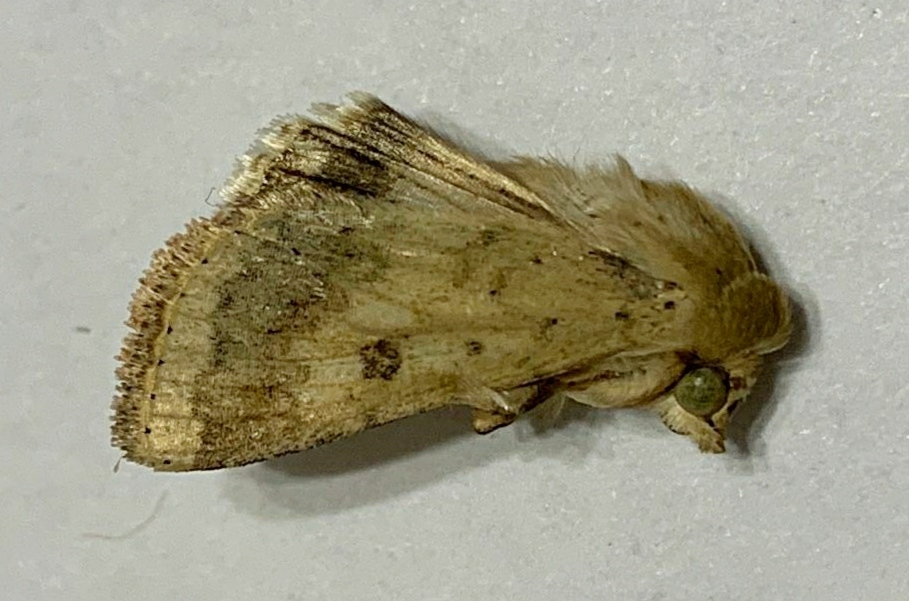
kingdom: Animalia
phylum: Arthropoda
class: Insecta
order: Lepidoptera
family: Noctuidae
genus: Helicoverpa
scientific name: Helicoverpa armigera
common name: Cotton bollworm
